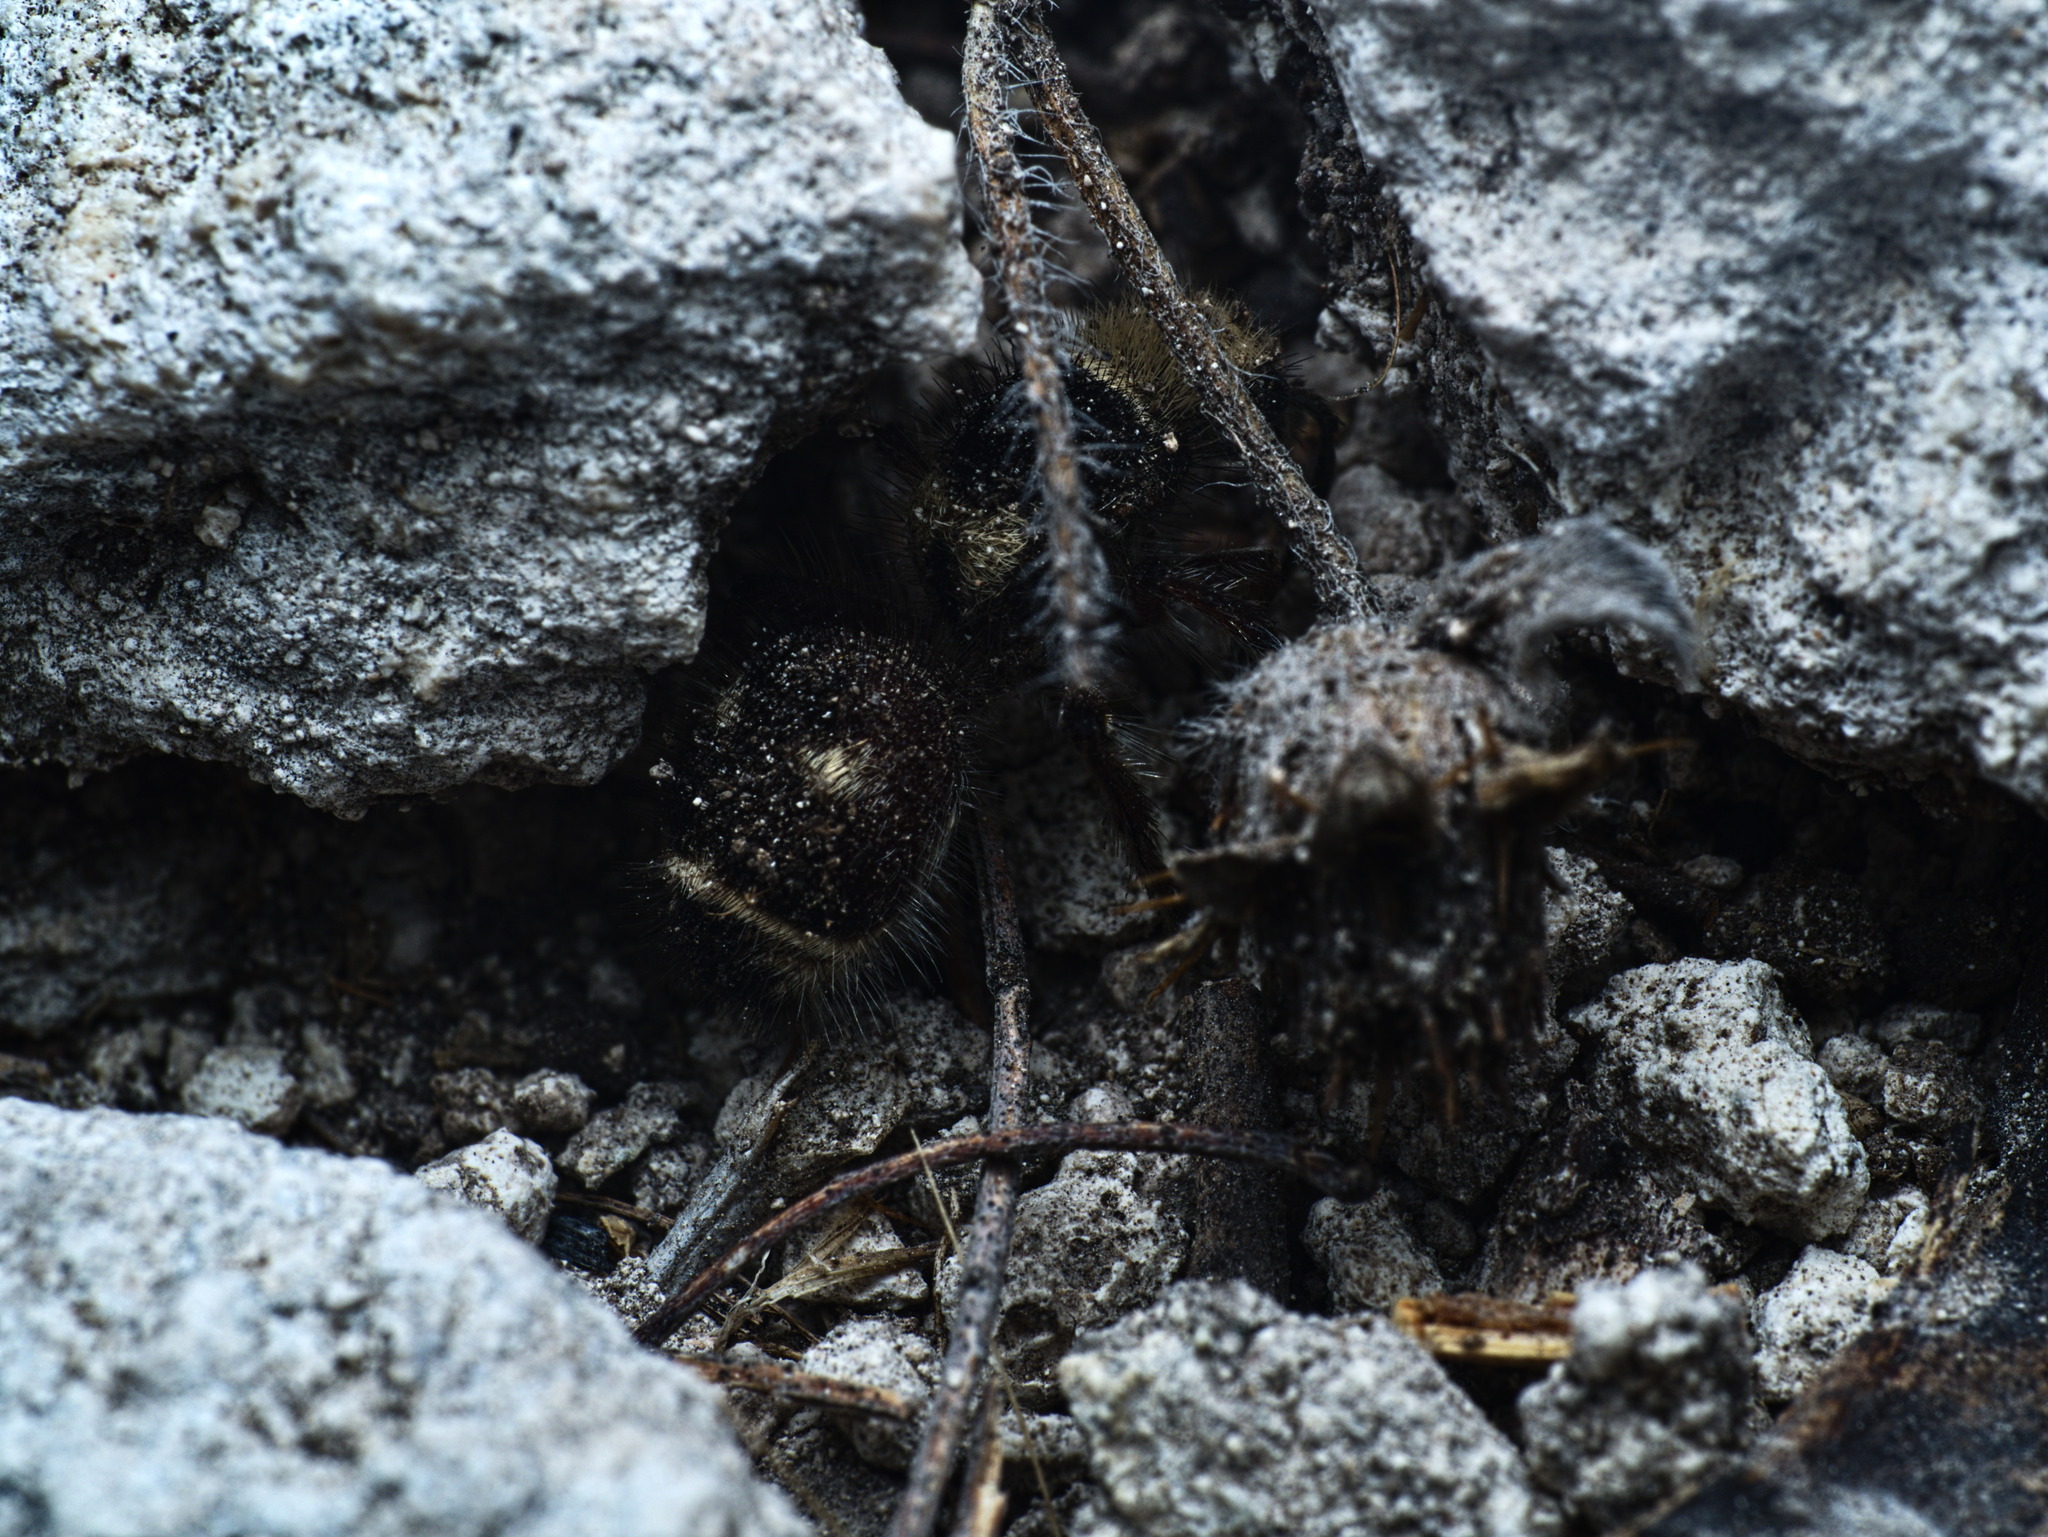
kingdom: Animalia
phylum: Arthropoda
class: Insecta
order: Hymenoptera
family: Mutillidae
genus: Dasymutilla
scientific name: Dasymutilla araneoides
